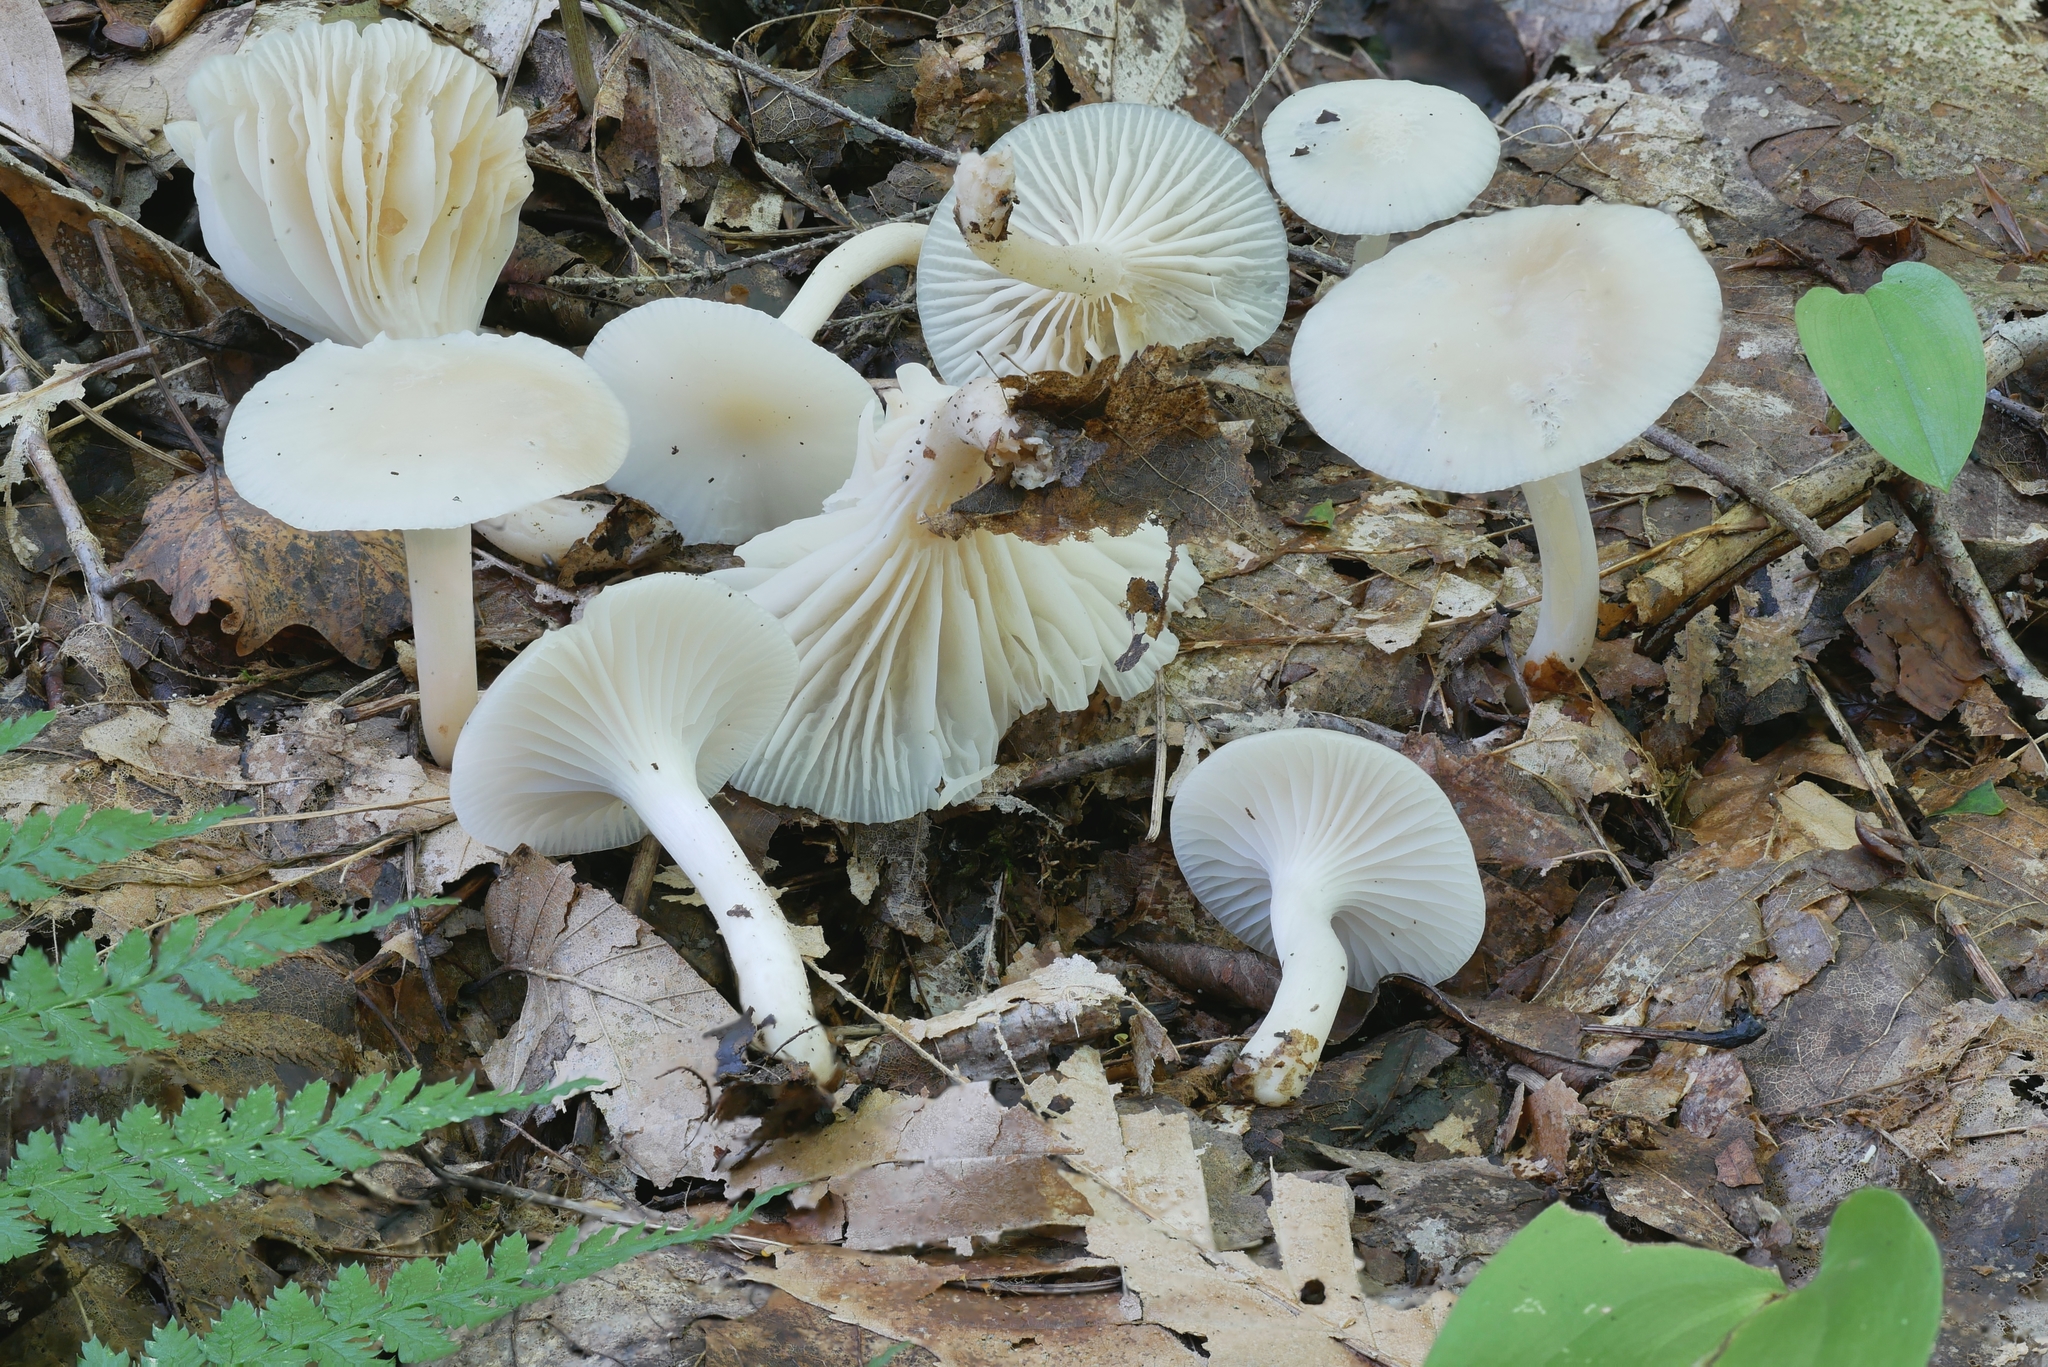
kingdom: Fungi
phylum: Basidiomycota
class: Agaricomycetes
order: Agaricales
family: Hygrophoraceae
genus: Cuphophyllus
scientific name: Cuphophyllus borealis
